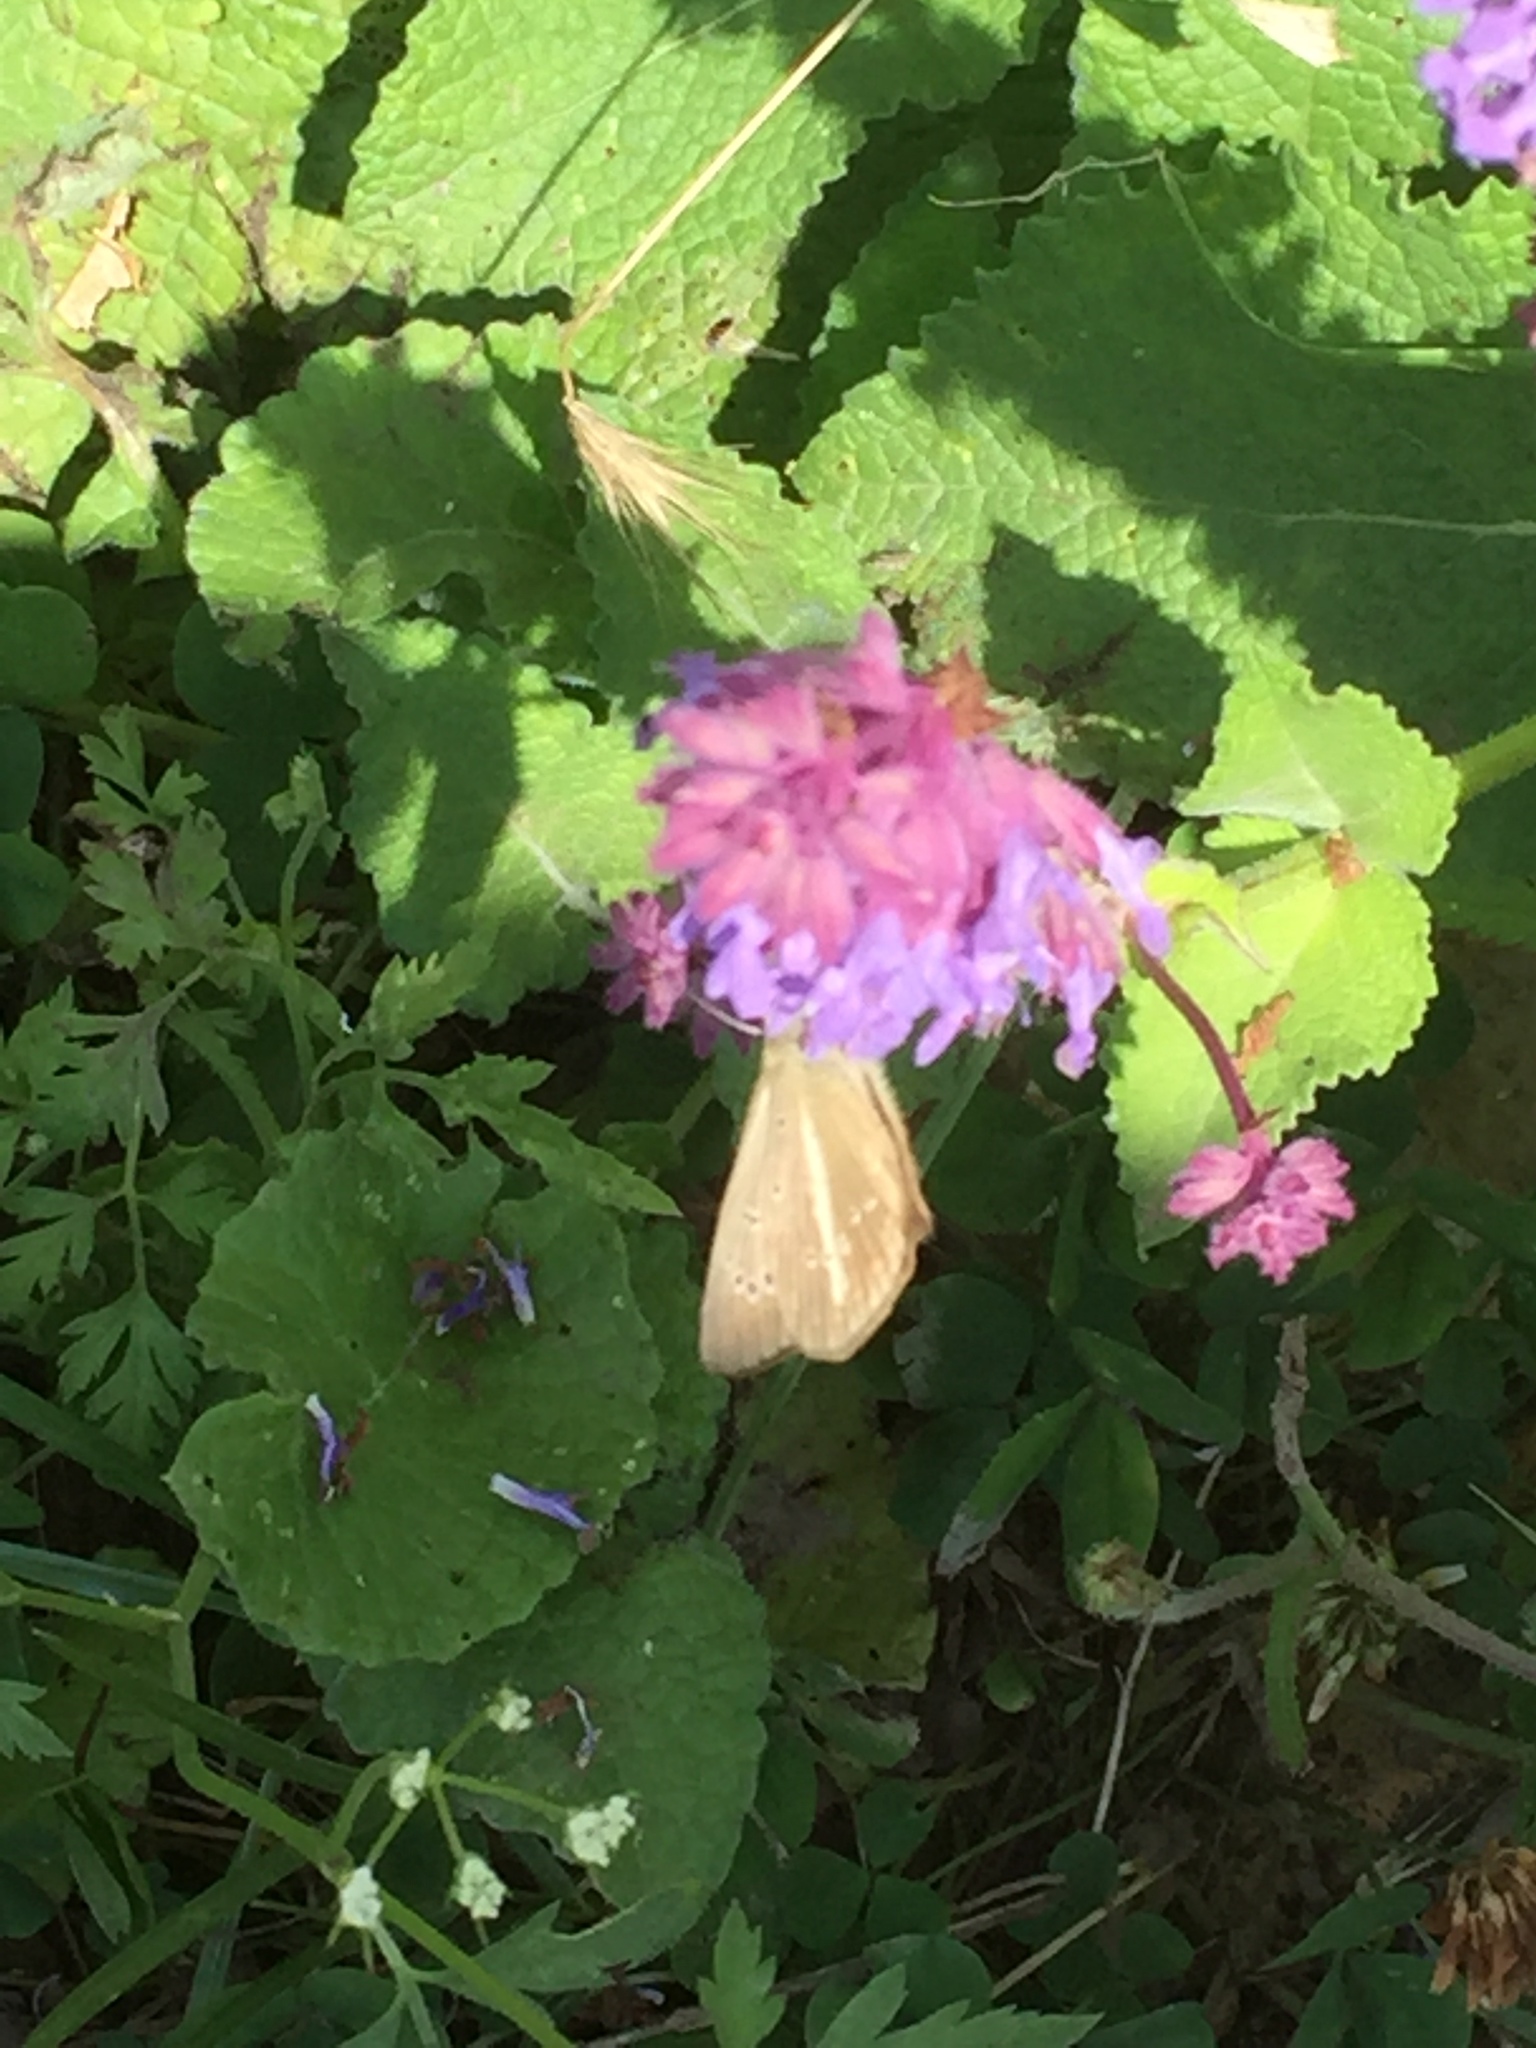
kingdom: Plantae
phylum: Tracheophyta
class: Magnoliopsida
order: Lamiales
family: Lamiaceae
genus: Salvia
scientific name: Salvia verticillata
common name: Whorled clary
